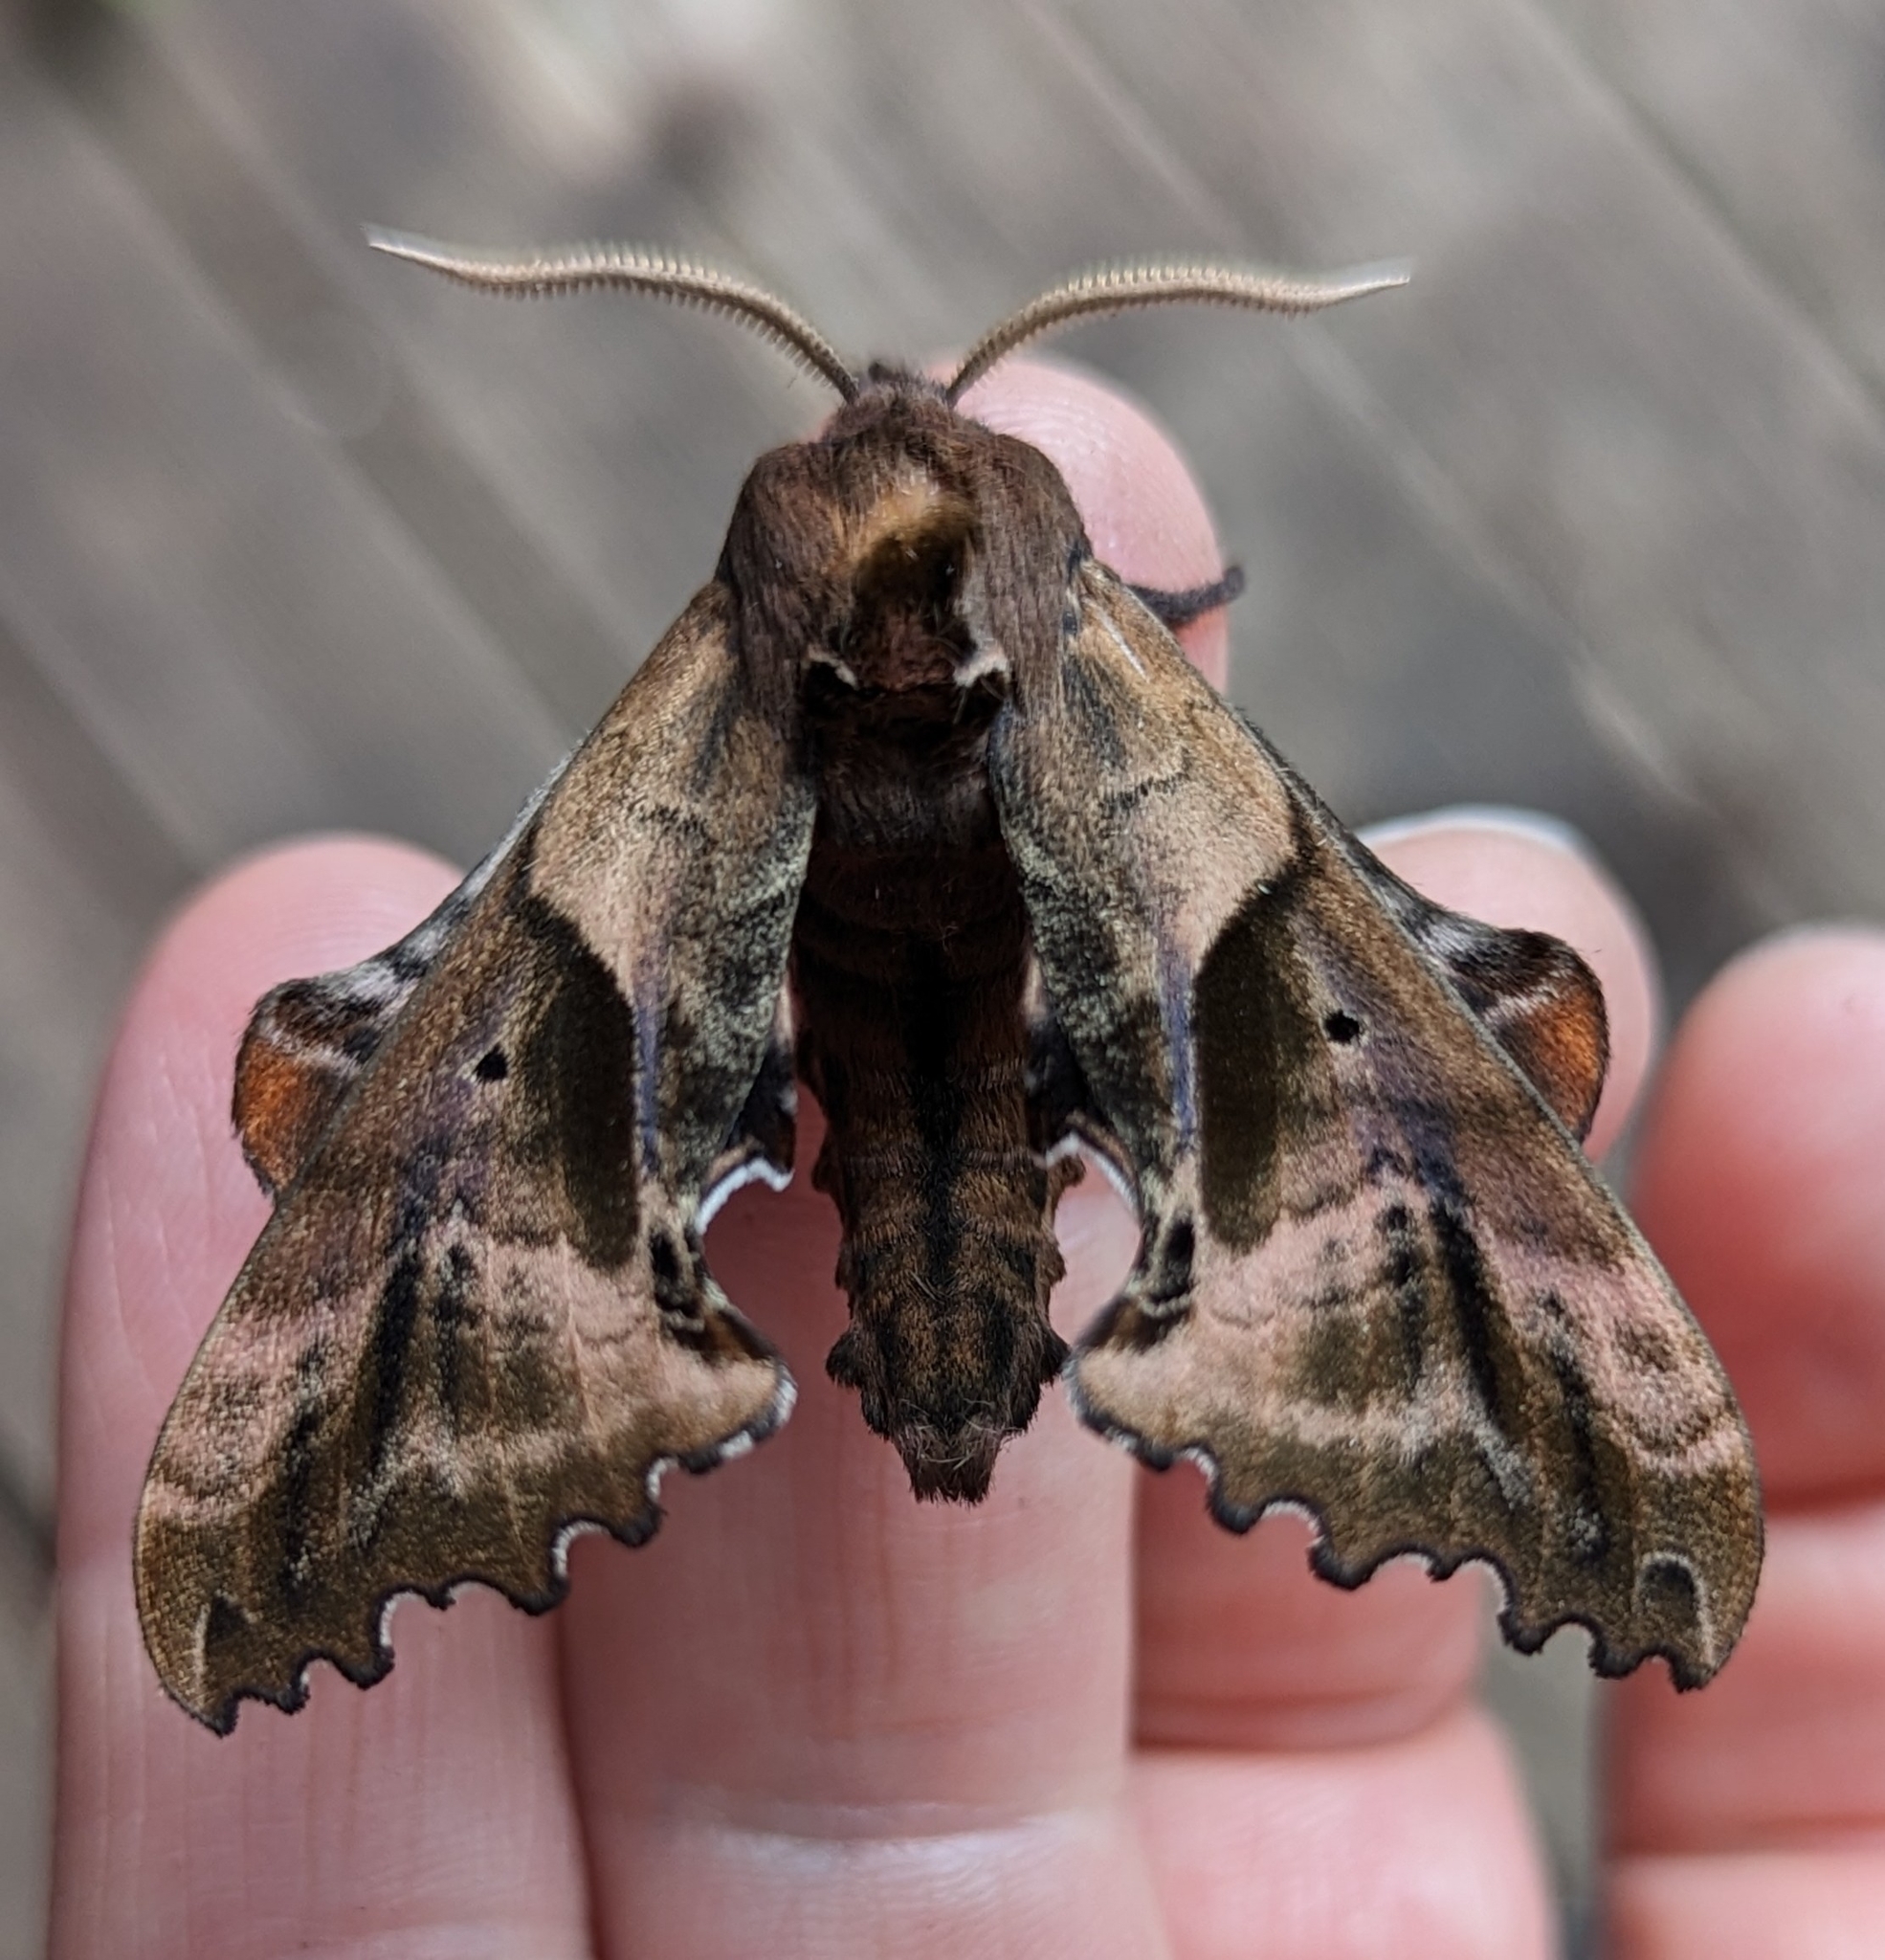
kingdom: Animalia
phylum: Arthropoda
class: Insecta
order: Lepidoptera
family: Sphingidae
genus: Paonias
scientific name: Paonias excaecata
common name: Blind-eyed sphinx
